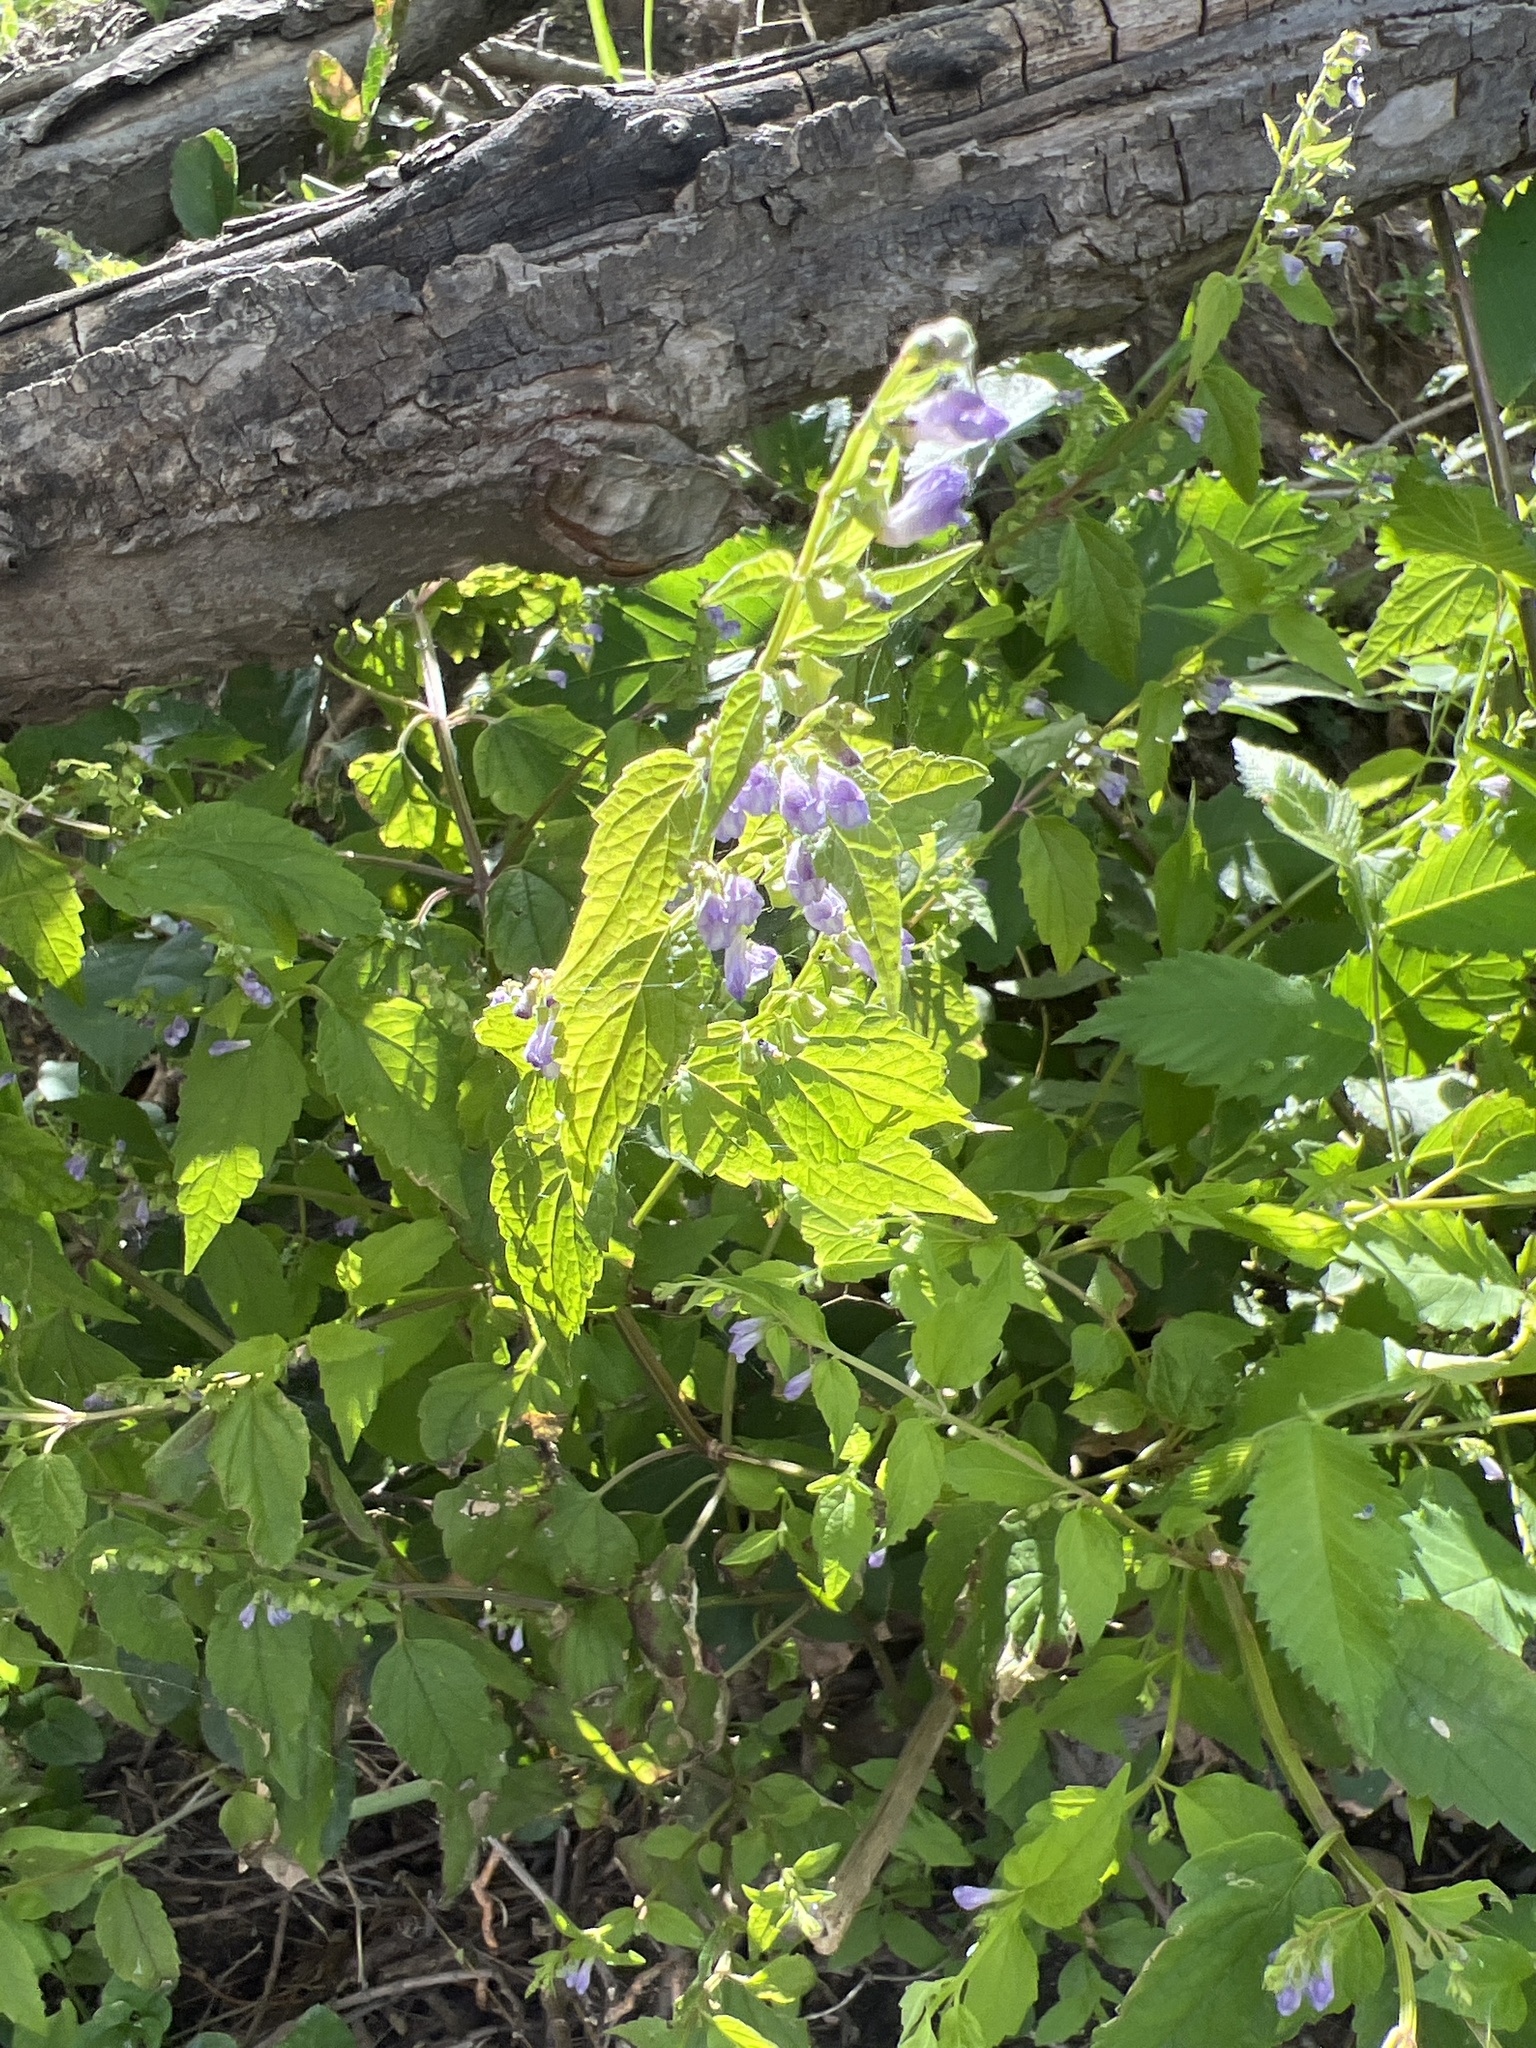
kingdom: Plantae
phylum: Tracheophyta
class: Magnoliopsida
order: Lamiales
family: Lamiaceae
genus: Scutellaria
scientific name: Scutellaria lateriflora
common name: Blue skullcap
